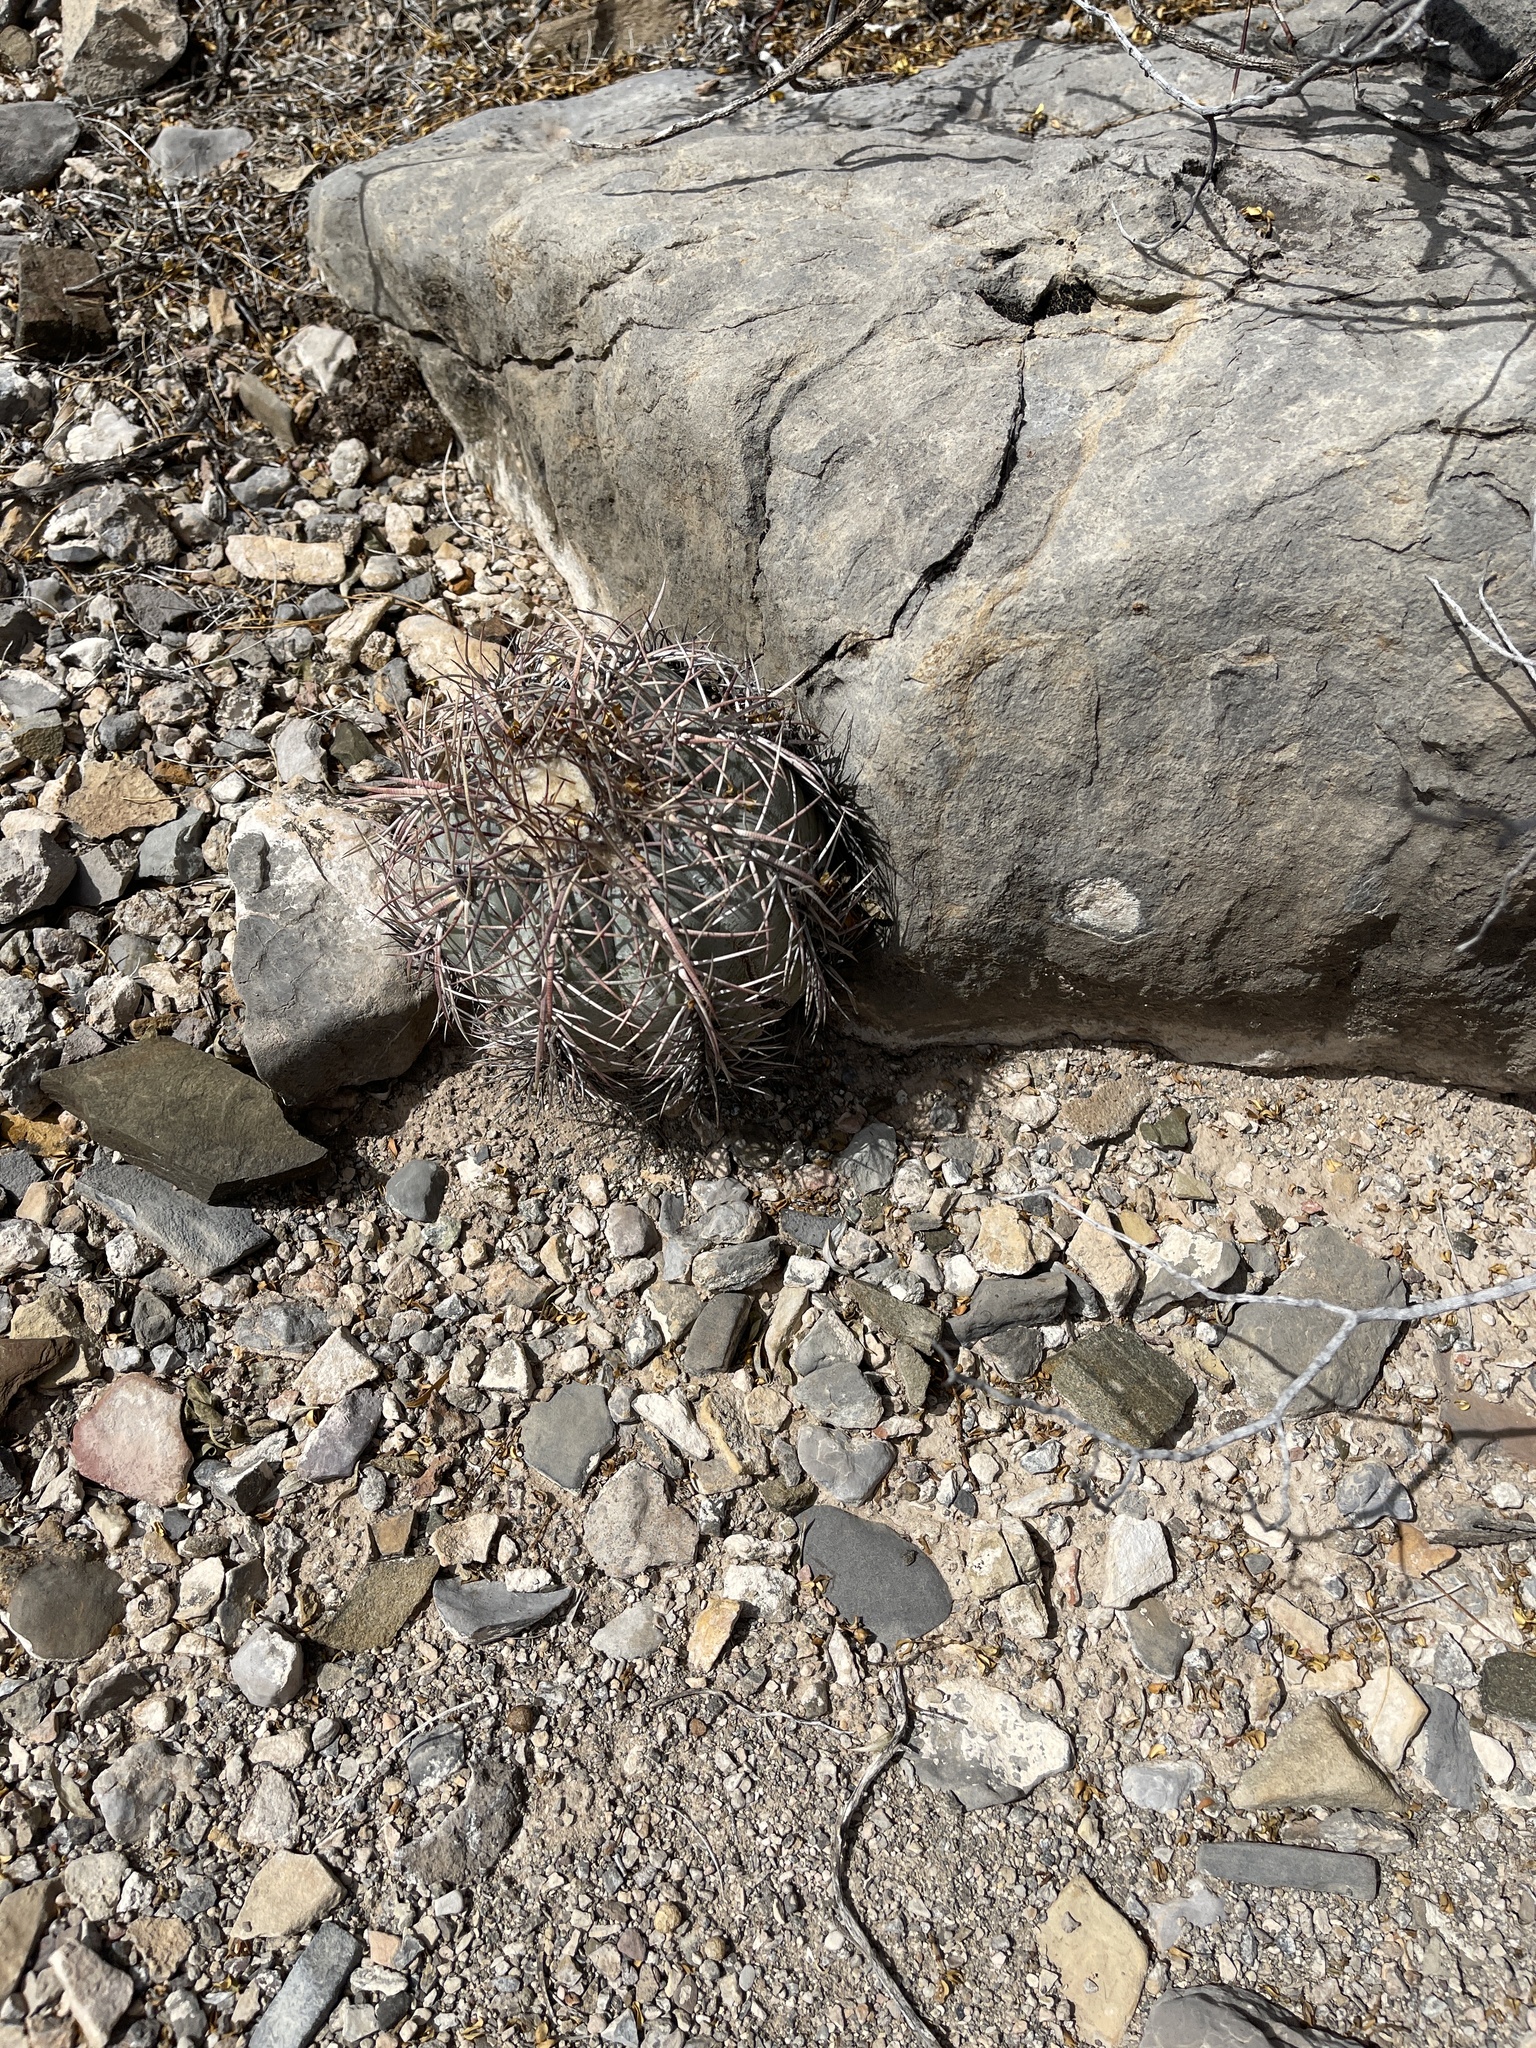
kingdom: Plantae
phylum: Tracheophyta
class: Magnoliopsida
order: Caryophyllales
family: Cactaceae
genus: Echinocactus
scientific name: Echinocactus horizonthalonius
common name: Devilshead
